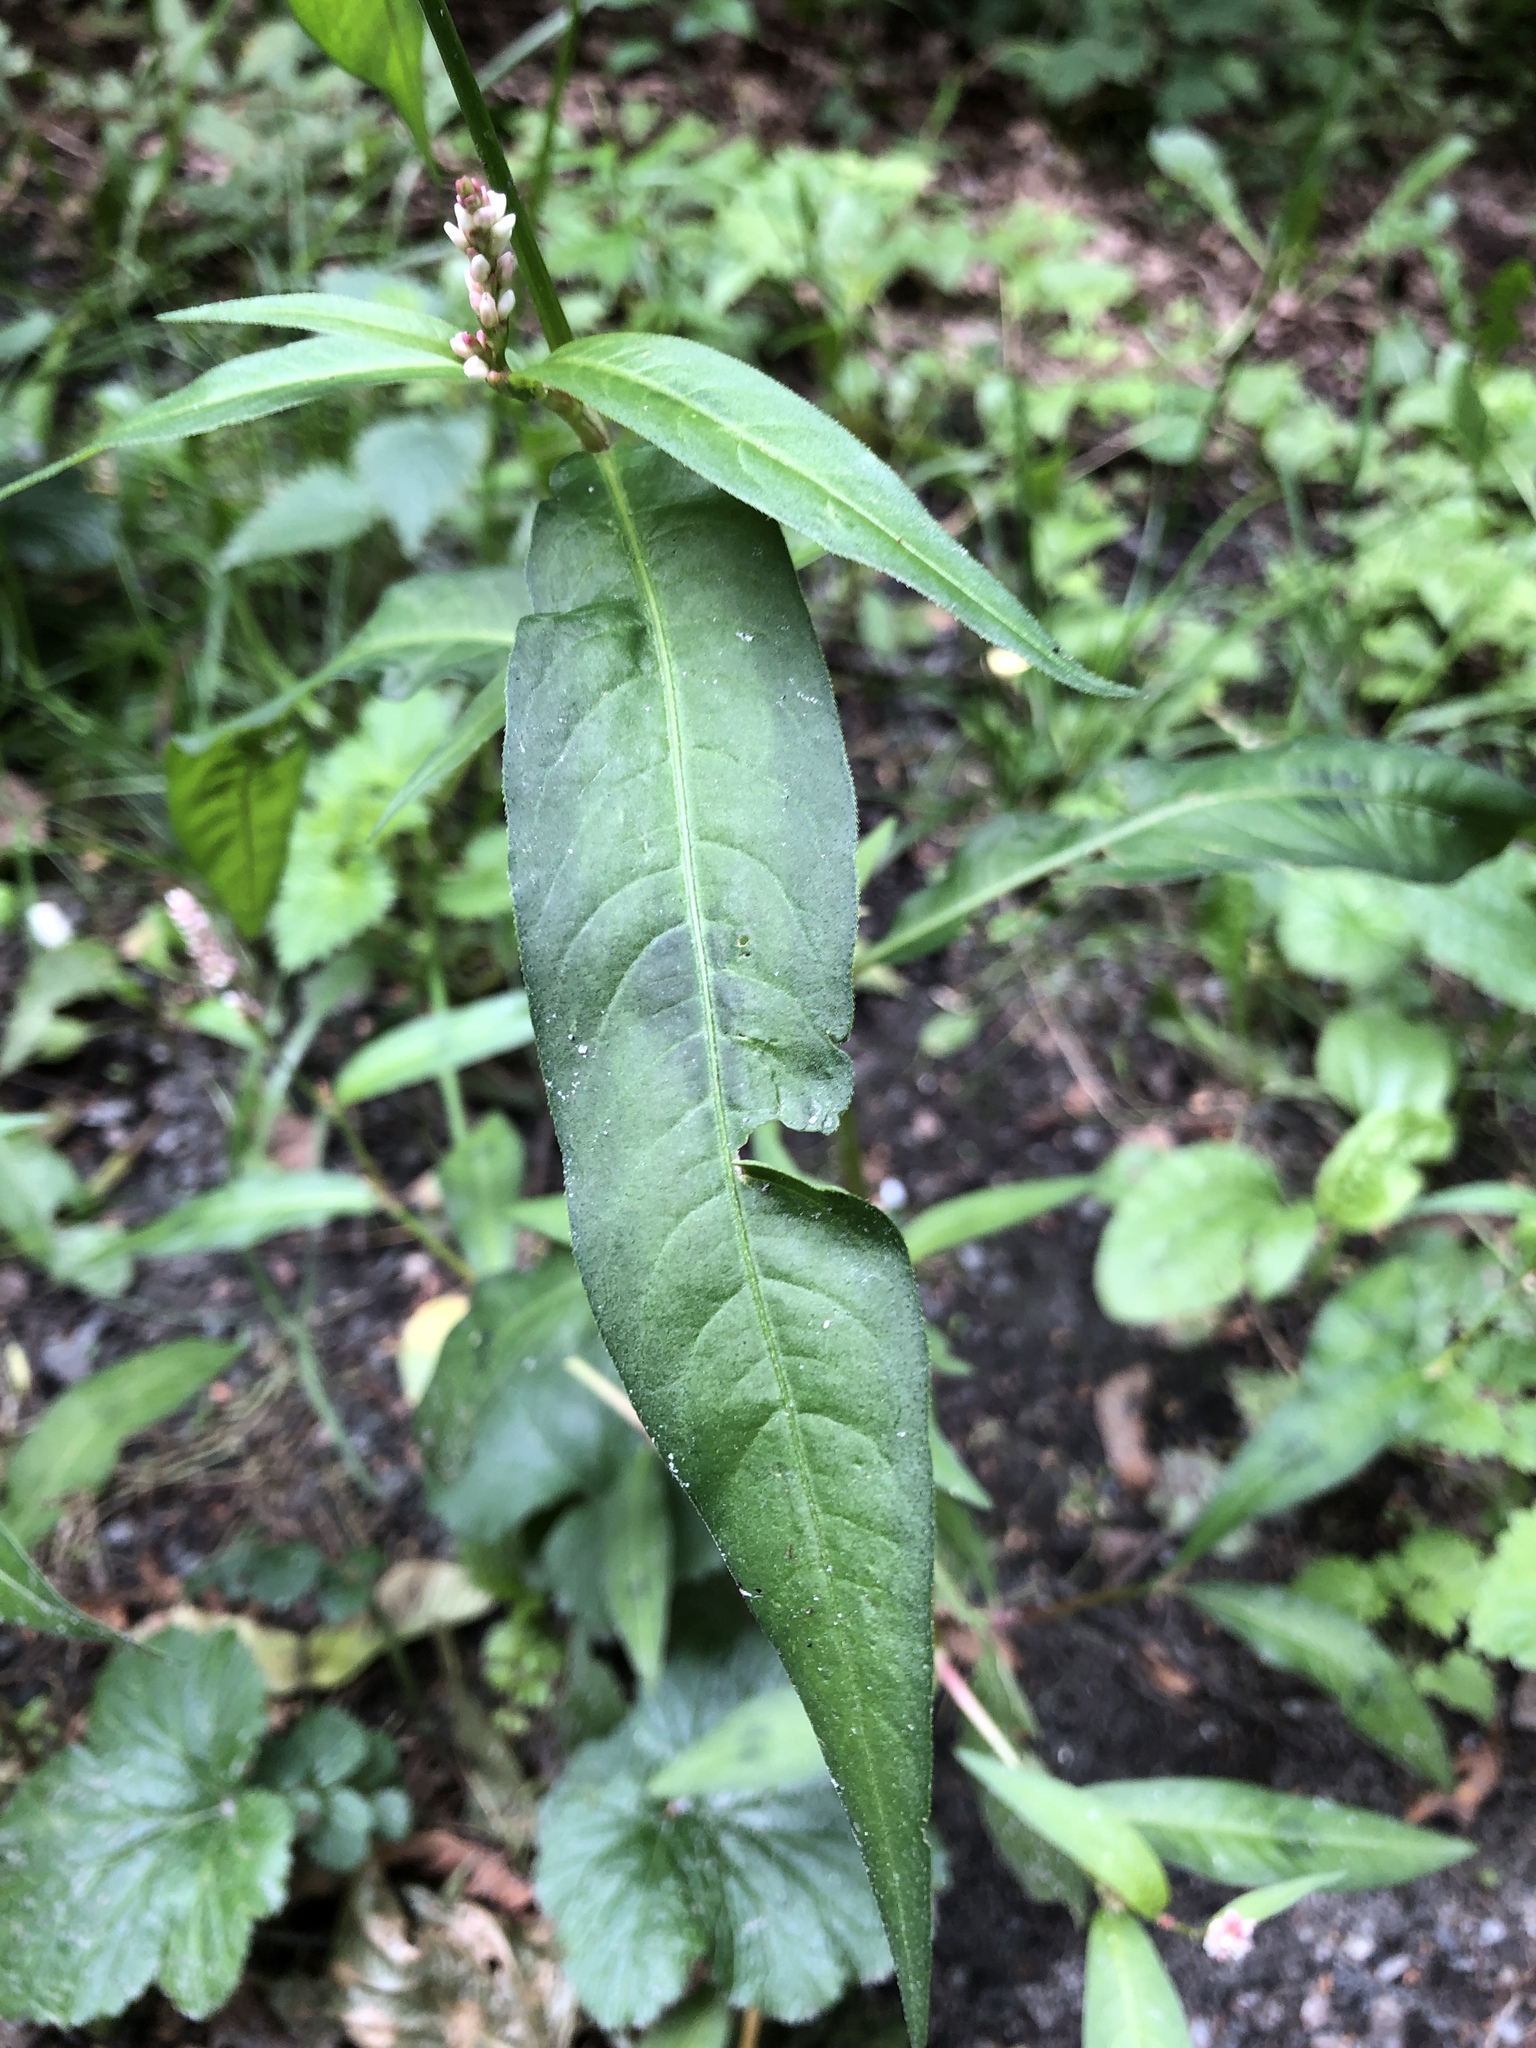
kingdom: Plantae
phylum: Tracheophyta
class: Magnoliopsida
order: Caryophyllales
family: Polygonaceae
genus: Persicaria
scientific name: Persicaria maculosa
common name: Redshank
